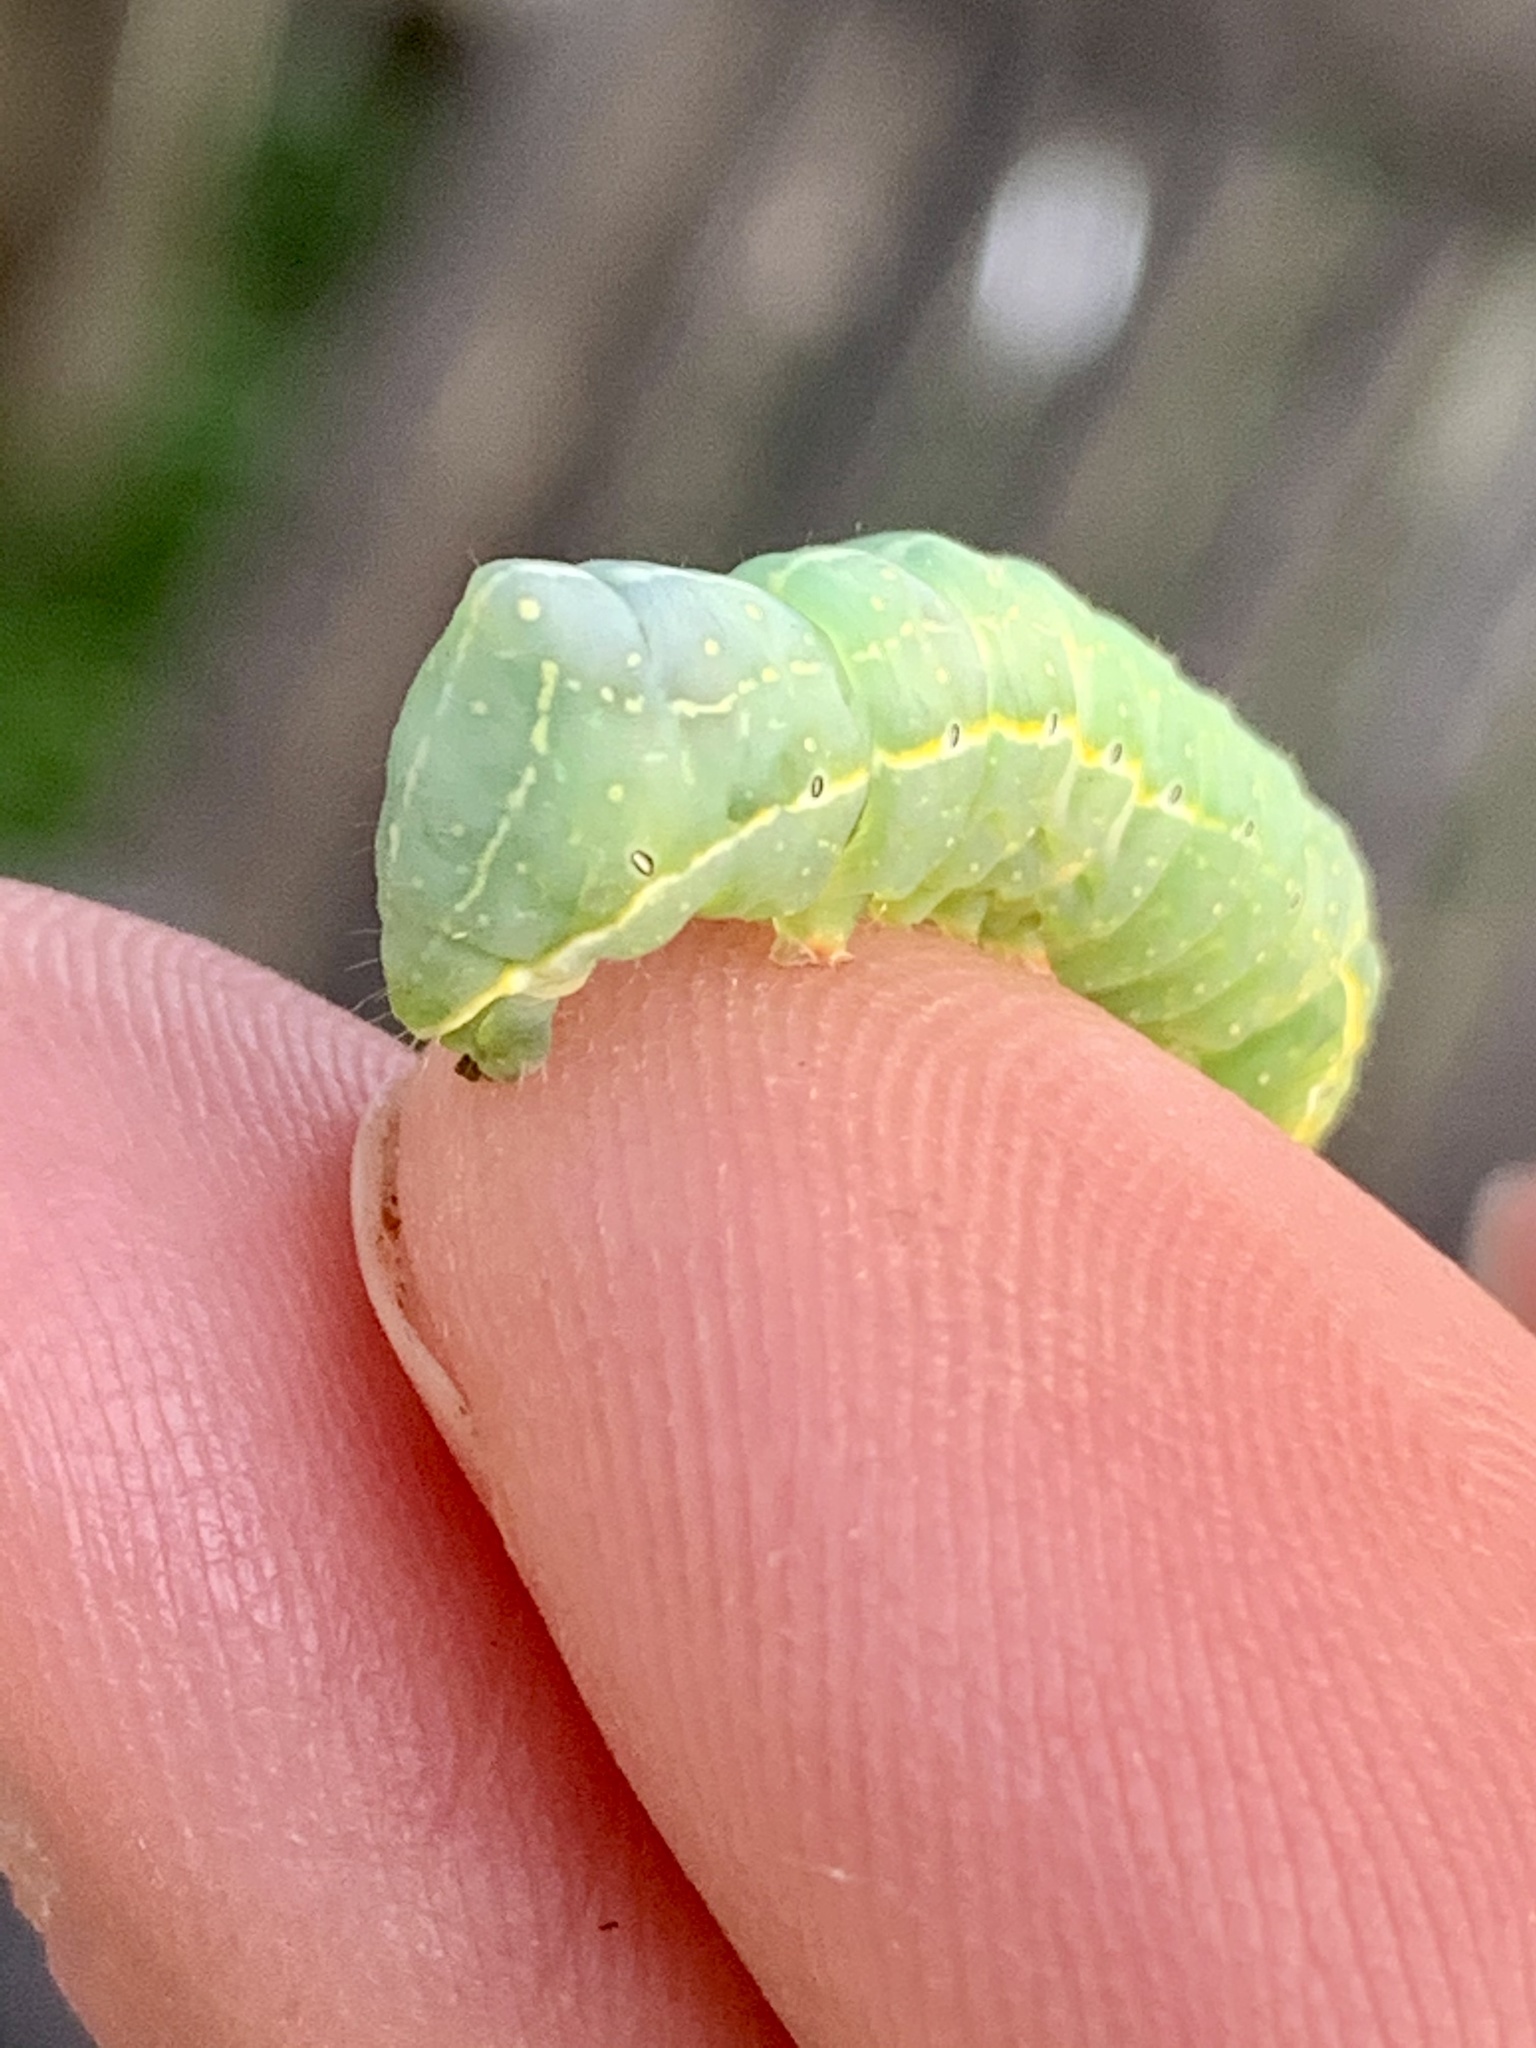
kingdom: Animalia
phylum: Arthropoda
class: Insecta
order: Lepidoptera
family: Noctuidae
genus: Amphipyra
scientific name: Amphipyra pyramidoides
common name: American copper underwing
